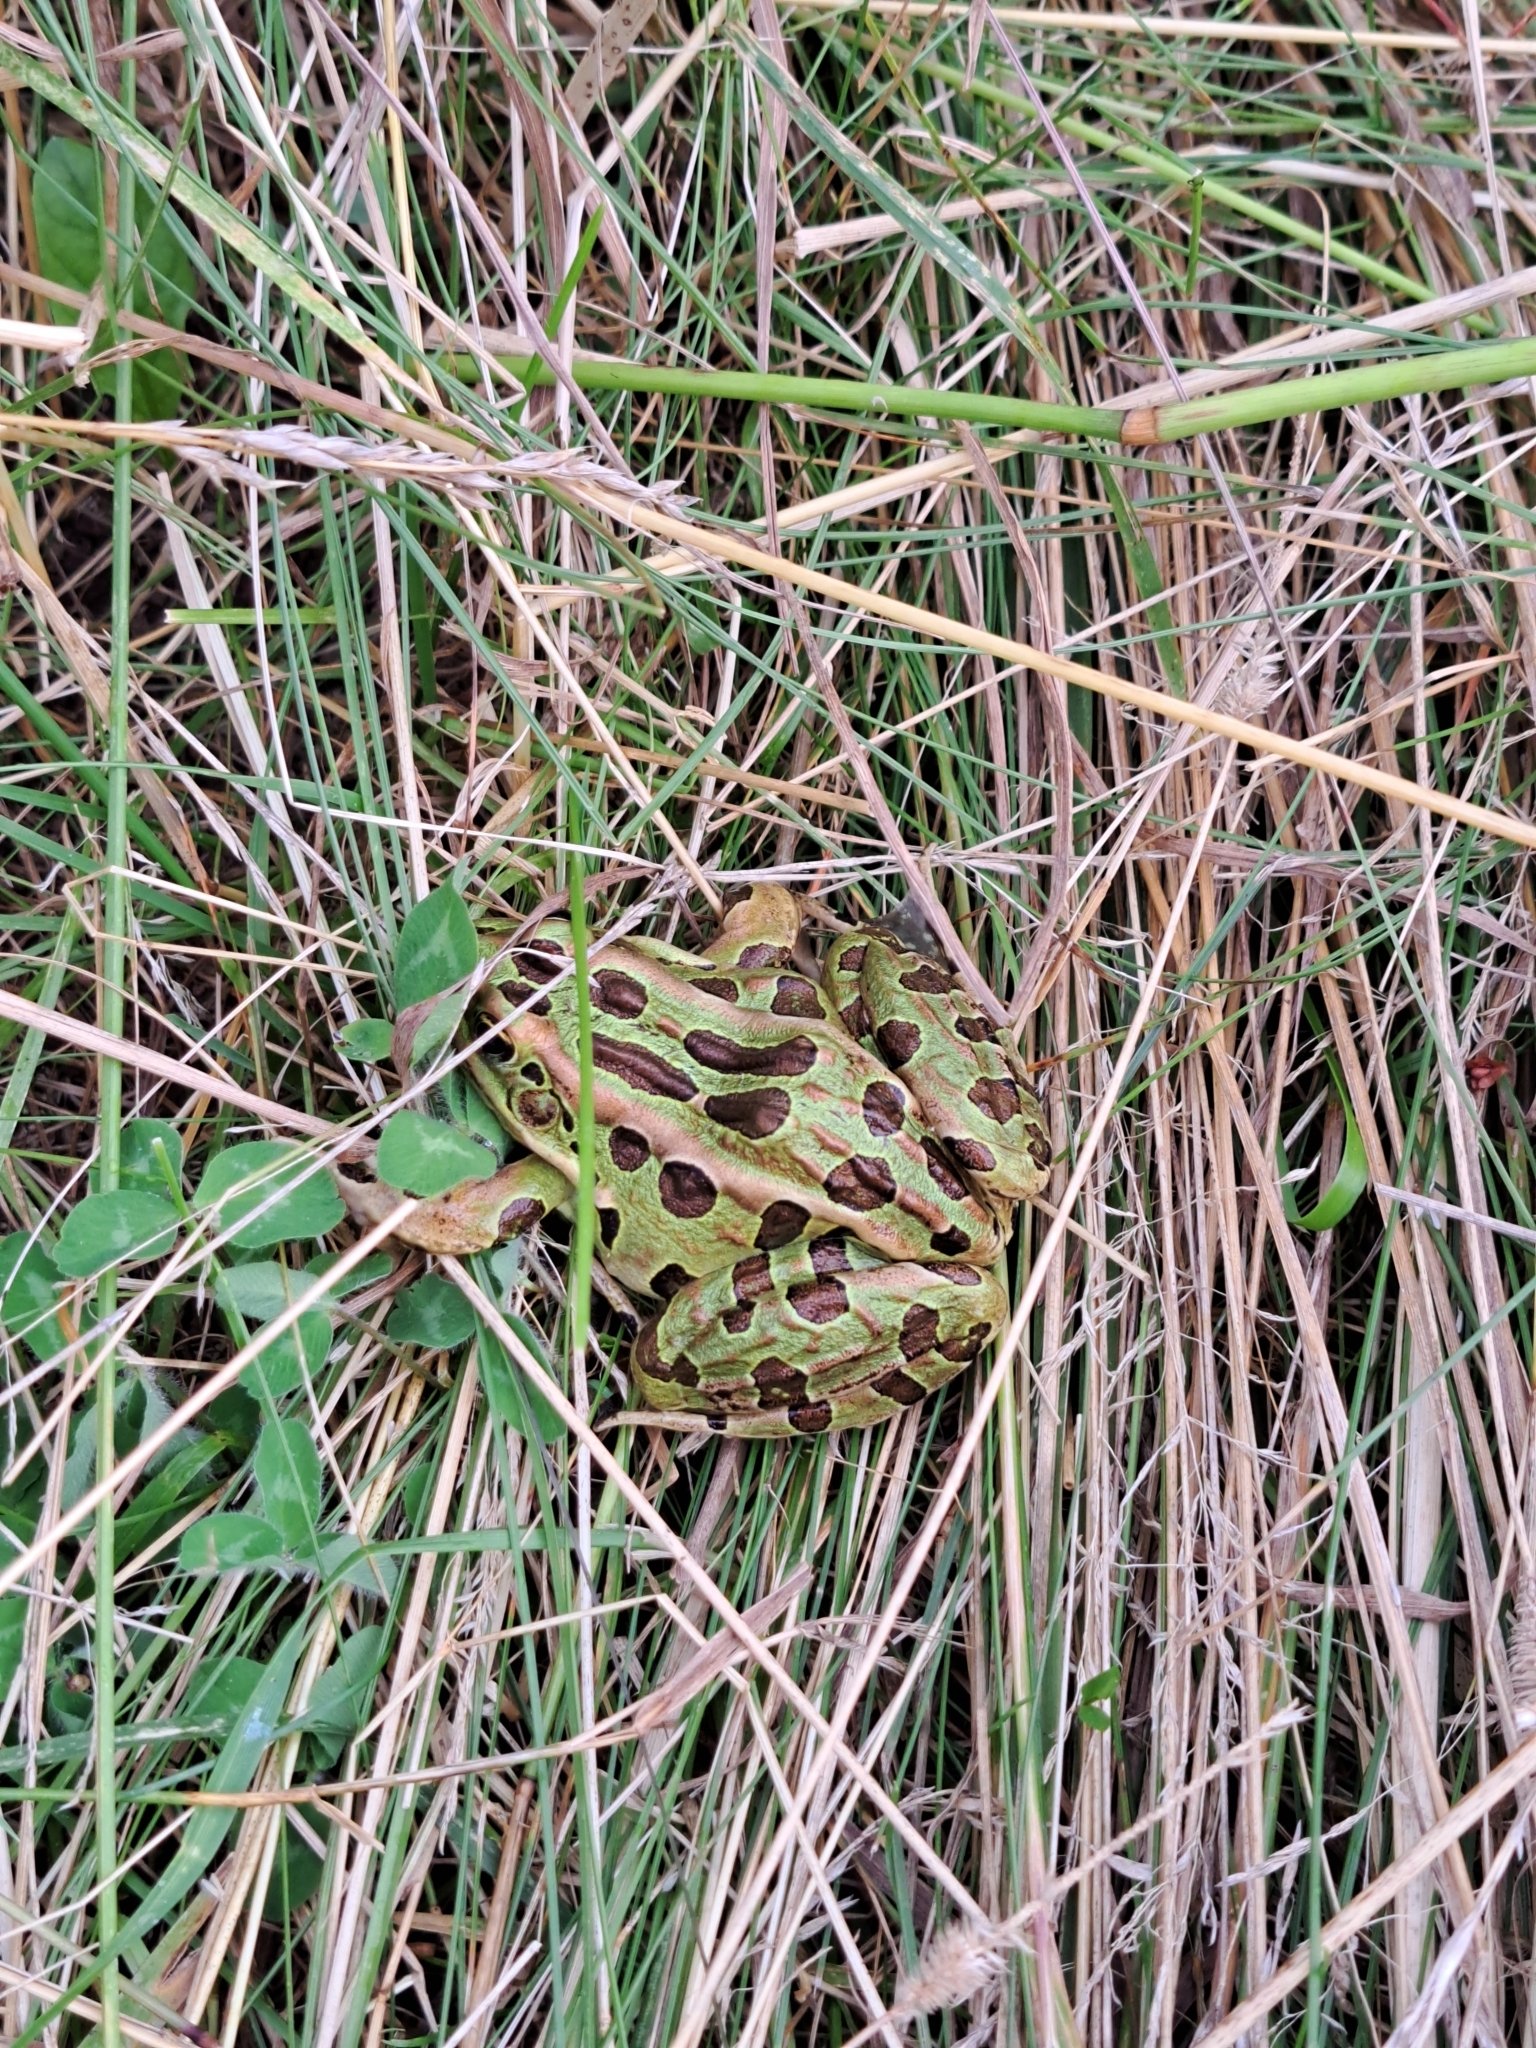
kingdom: Animalia
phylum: Chordata
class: Amphibia
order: Anura
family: Ranidae
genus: Lithobates
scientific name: Lithobates pipiens
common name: Northern leopard frog
